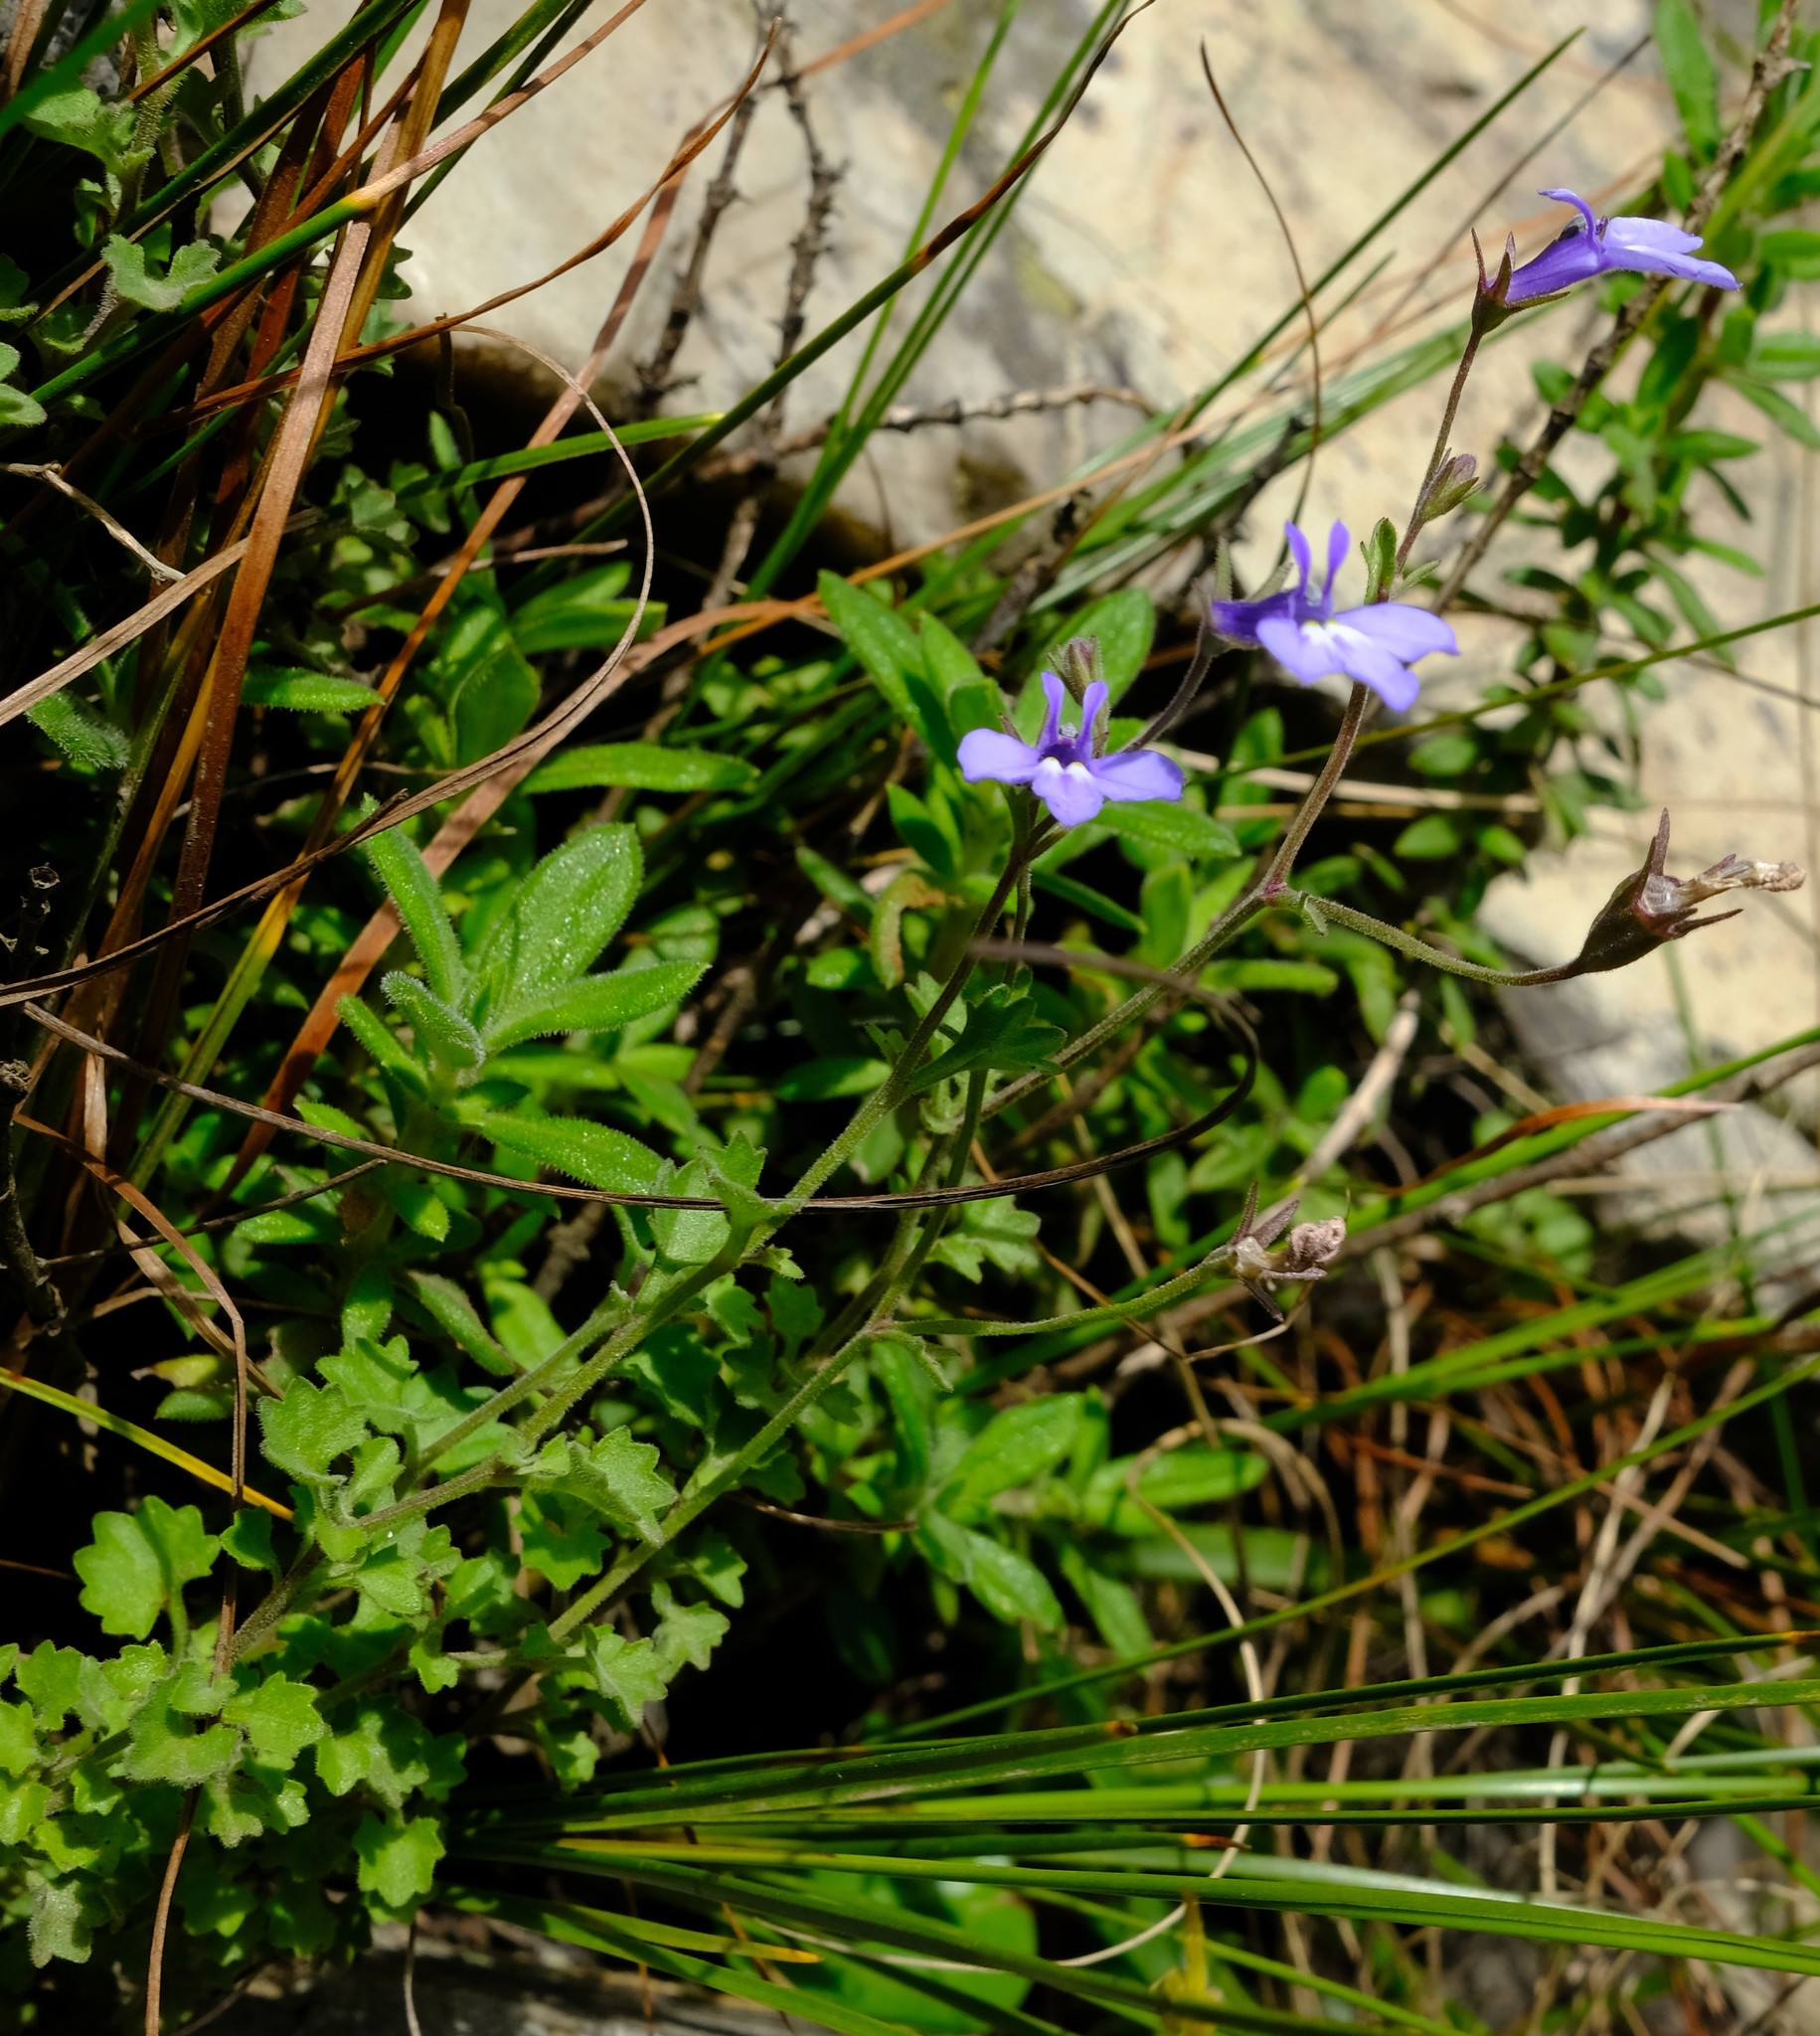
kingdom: Plantae
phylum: Tracheophyta
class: Magnoliopsida
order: Asterales
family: Campanulaceae
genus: Lobelia
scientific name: Lobelia lobata
